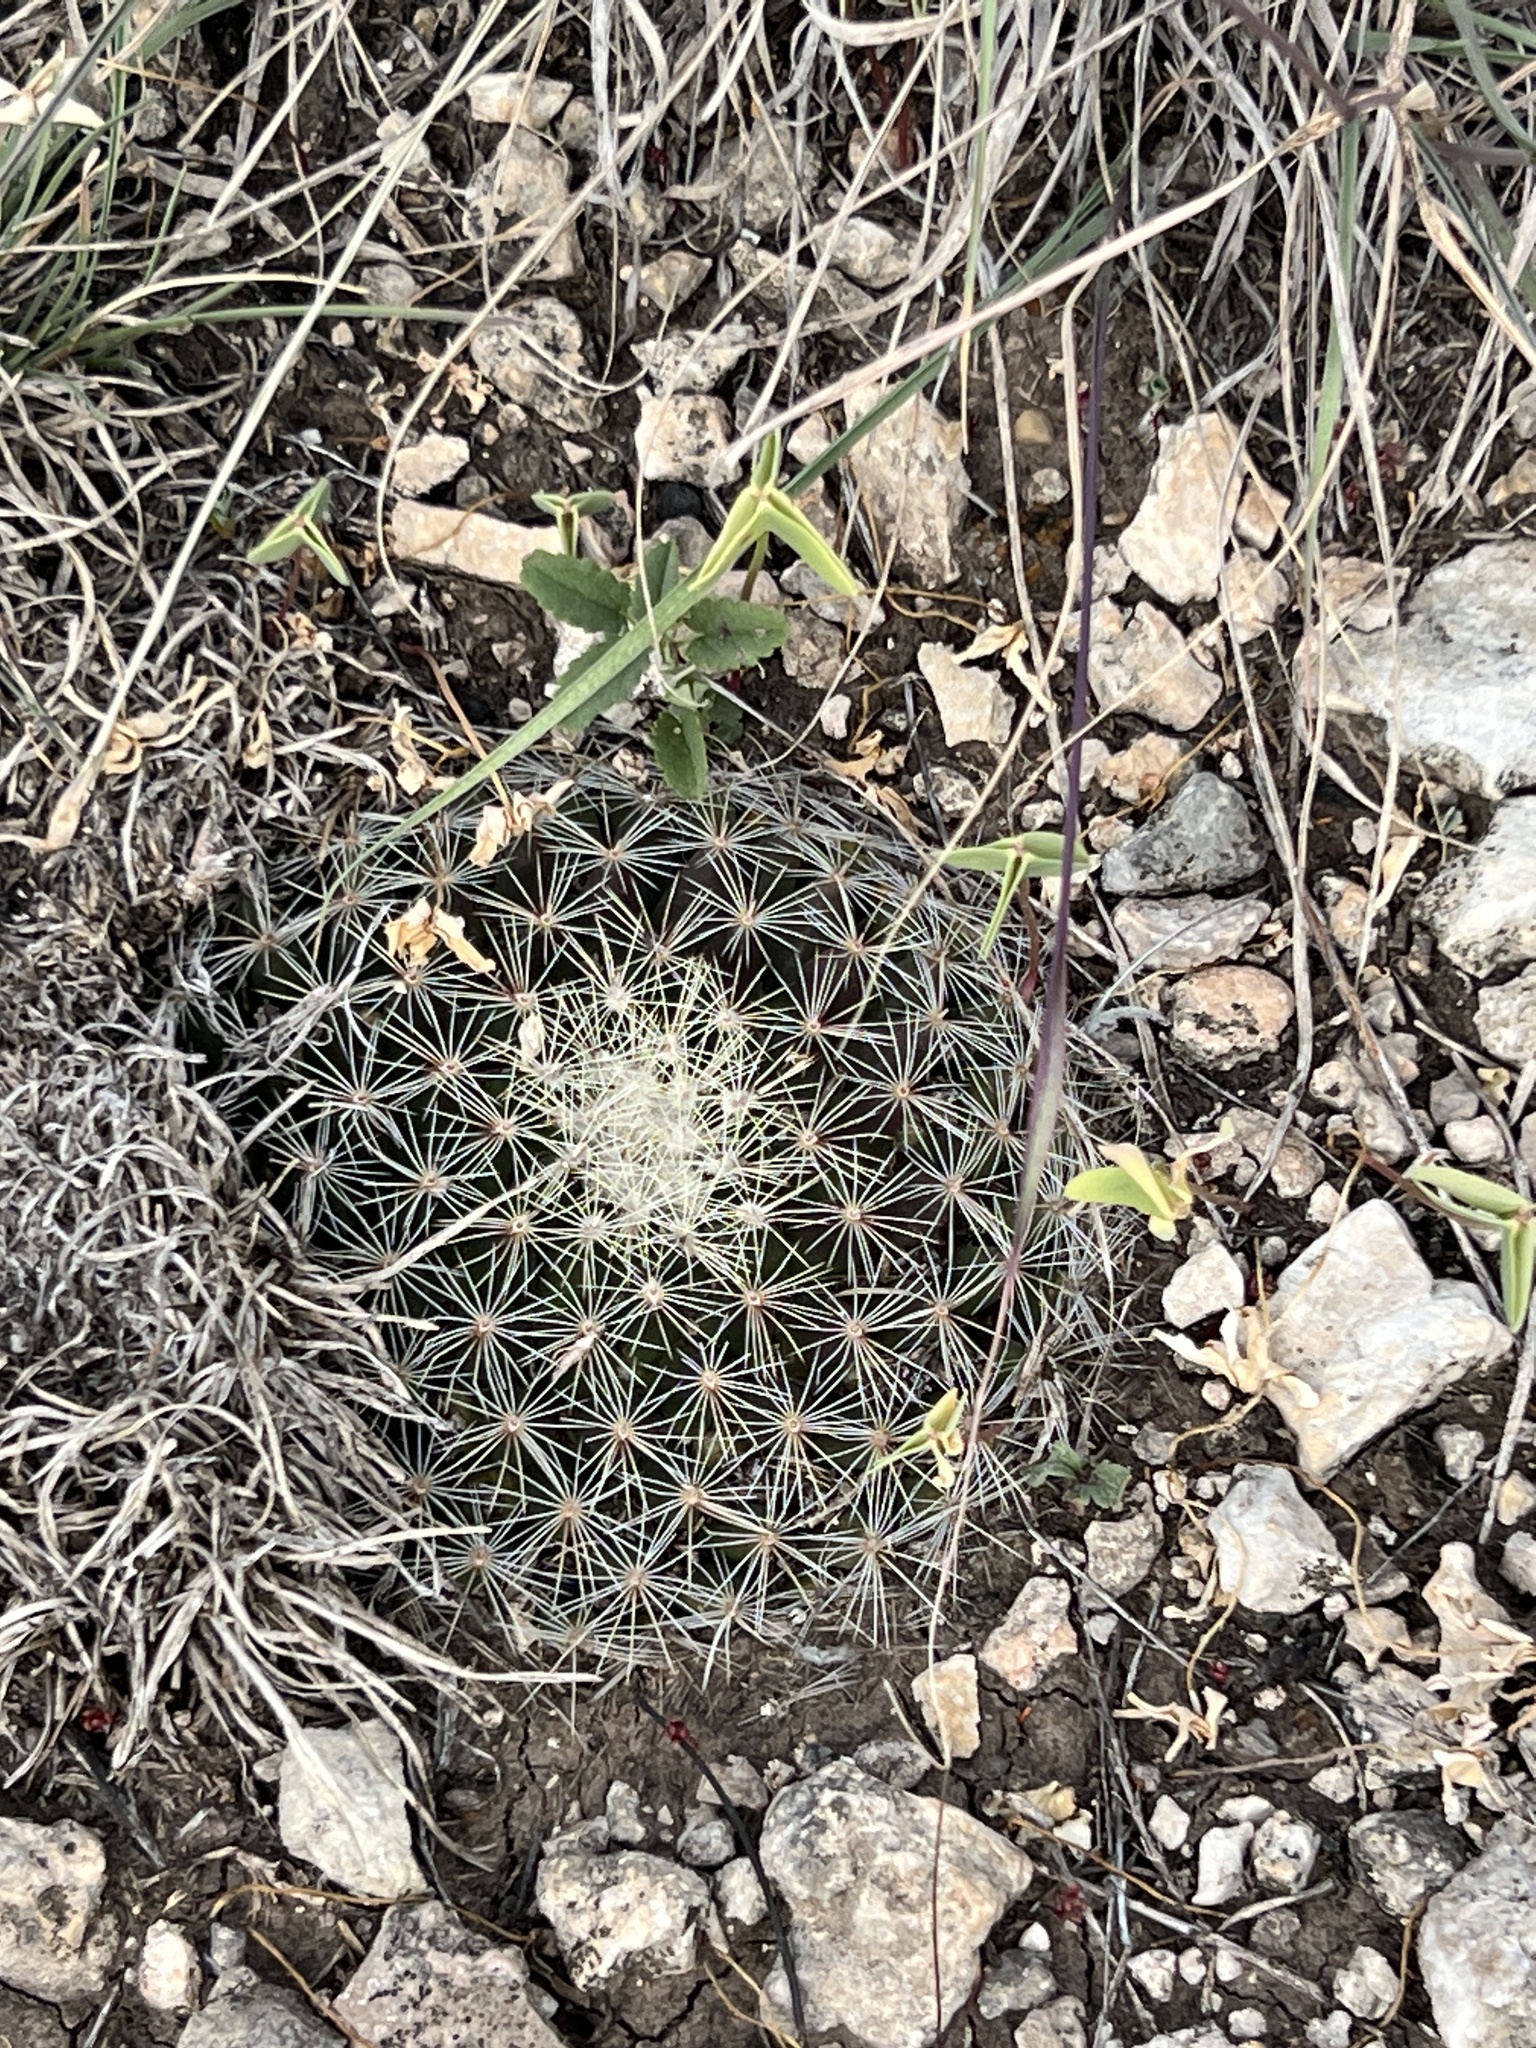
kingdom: Plantae
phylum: Tracheophyta
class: Magnoliopsida
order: Caryophyllales
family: Cactaceae
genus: Mammillaria
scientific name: Mammillaria heyderi
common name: Little nipple cactus
